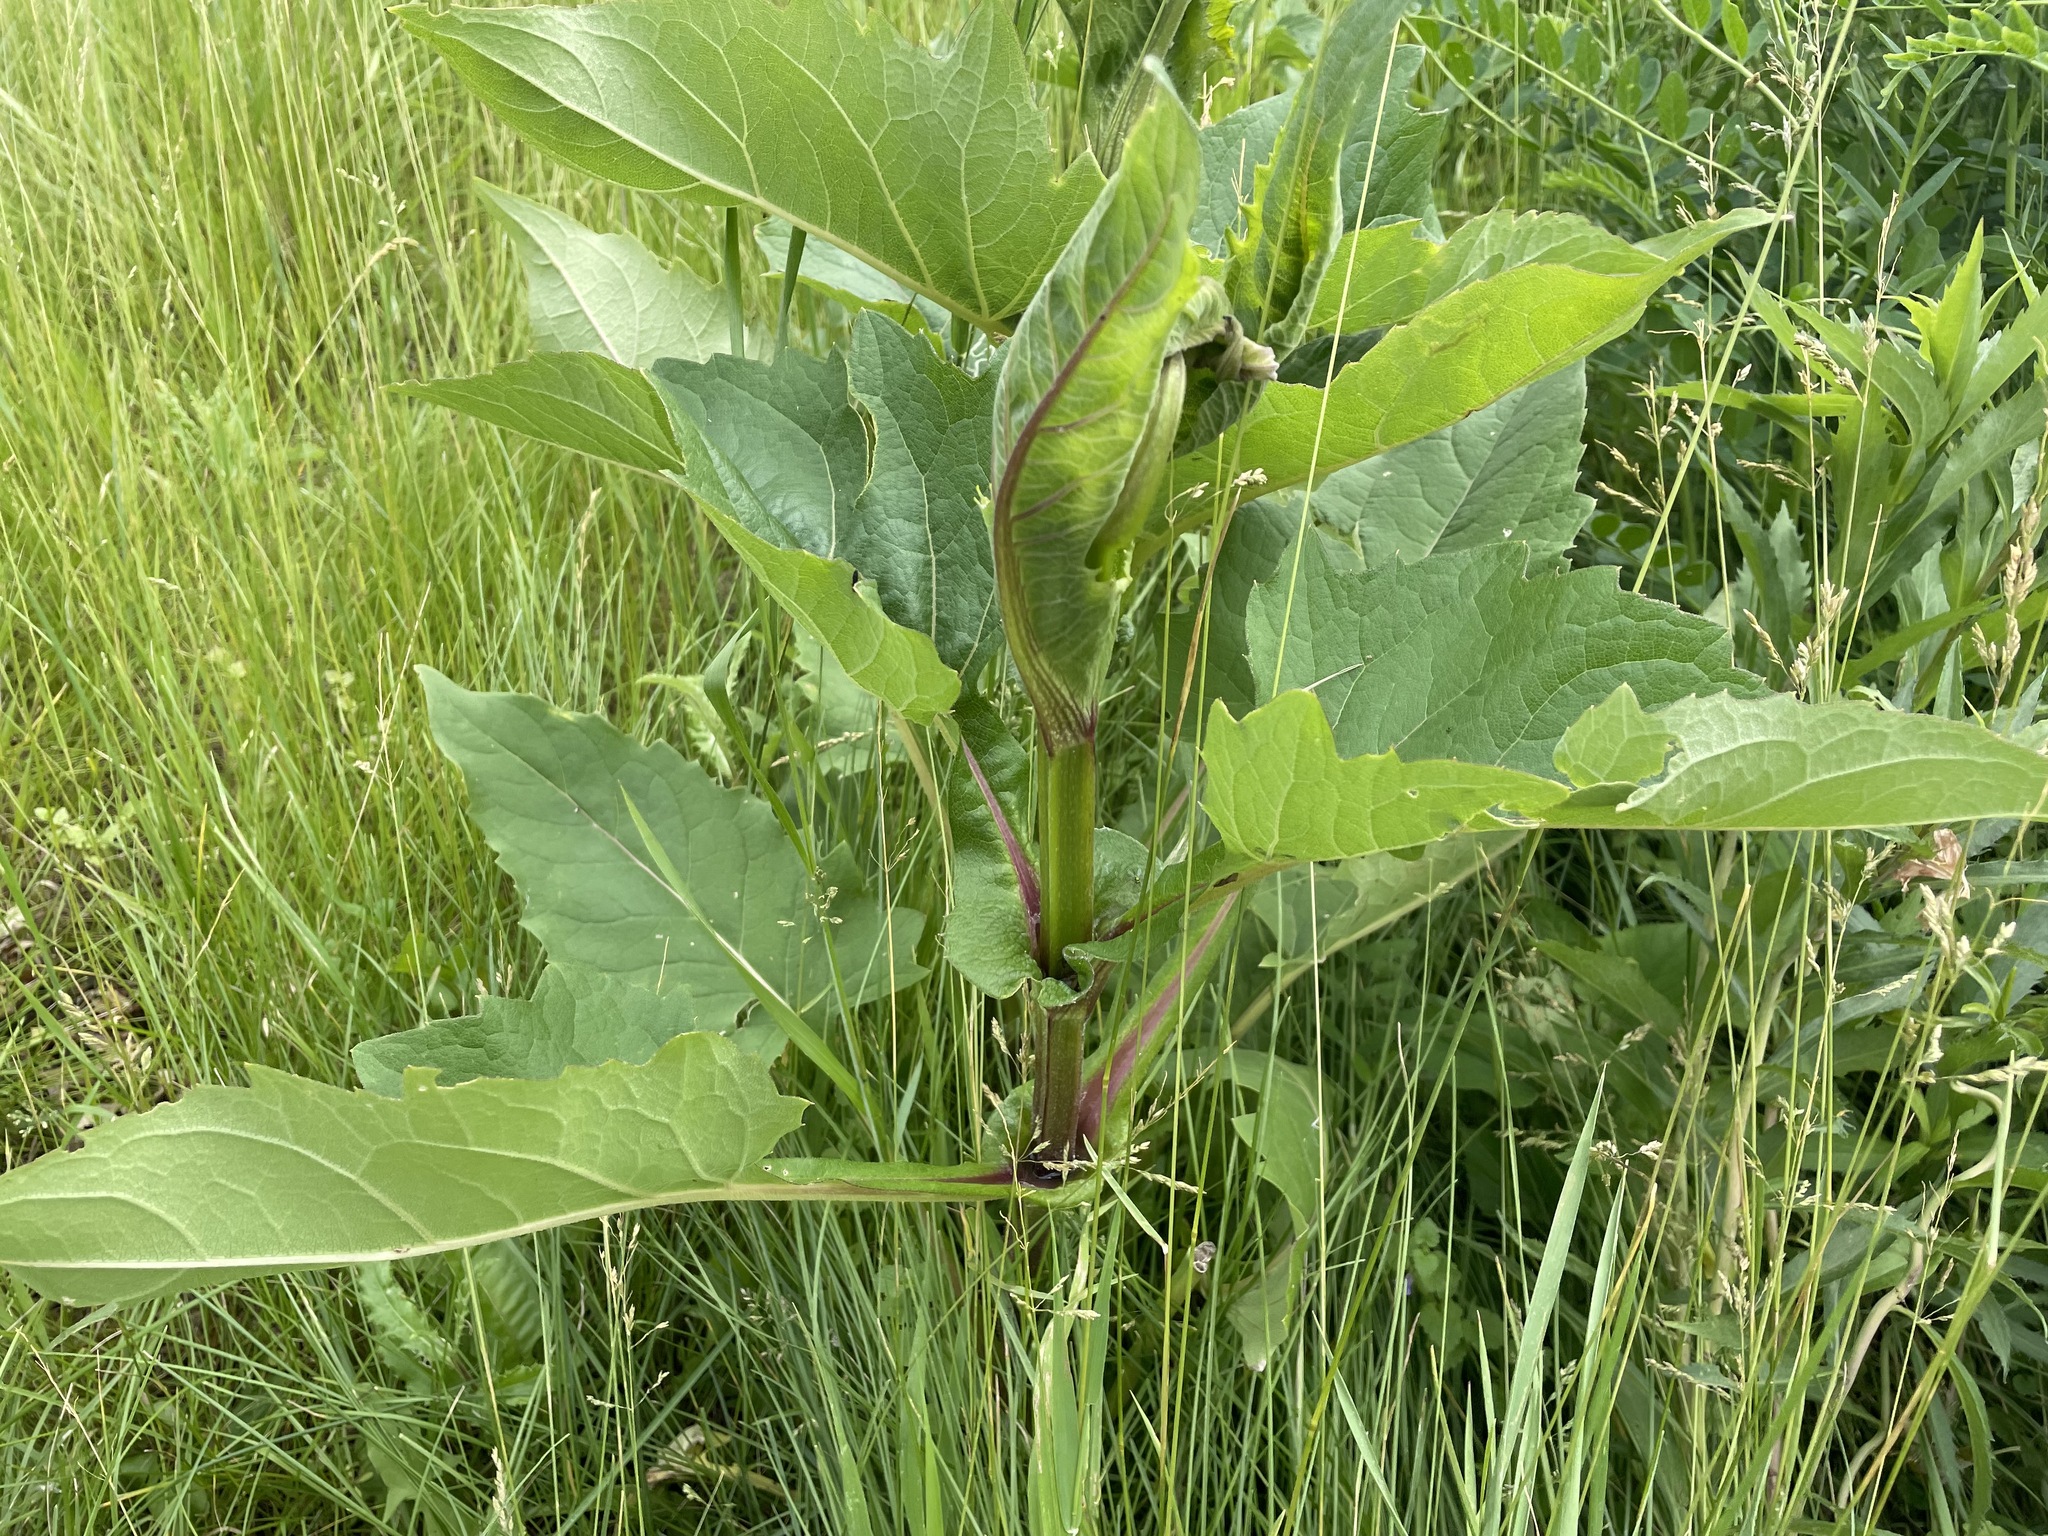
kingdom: Plantae
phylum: Tracheophyta
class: Magnoliopsida
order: Asterales
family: Asteraceae
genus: Silphium
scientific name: Silphium perfoliatum
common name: Cup-plant
